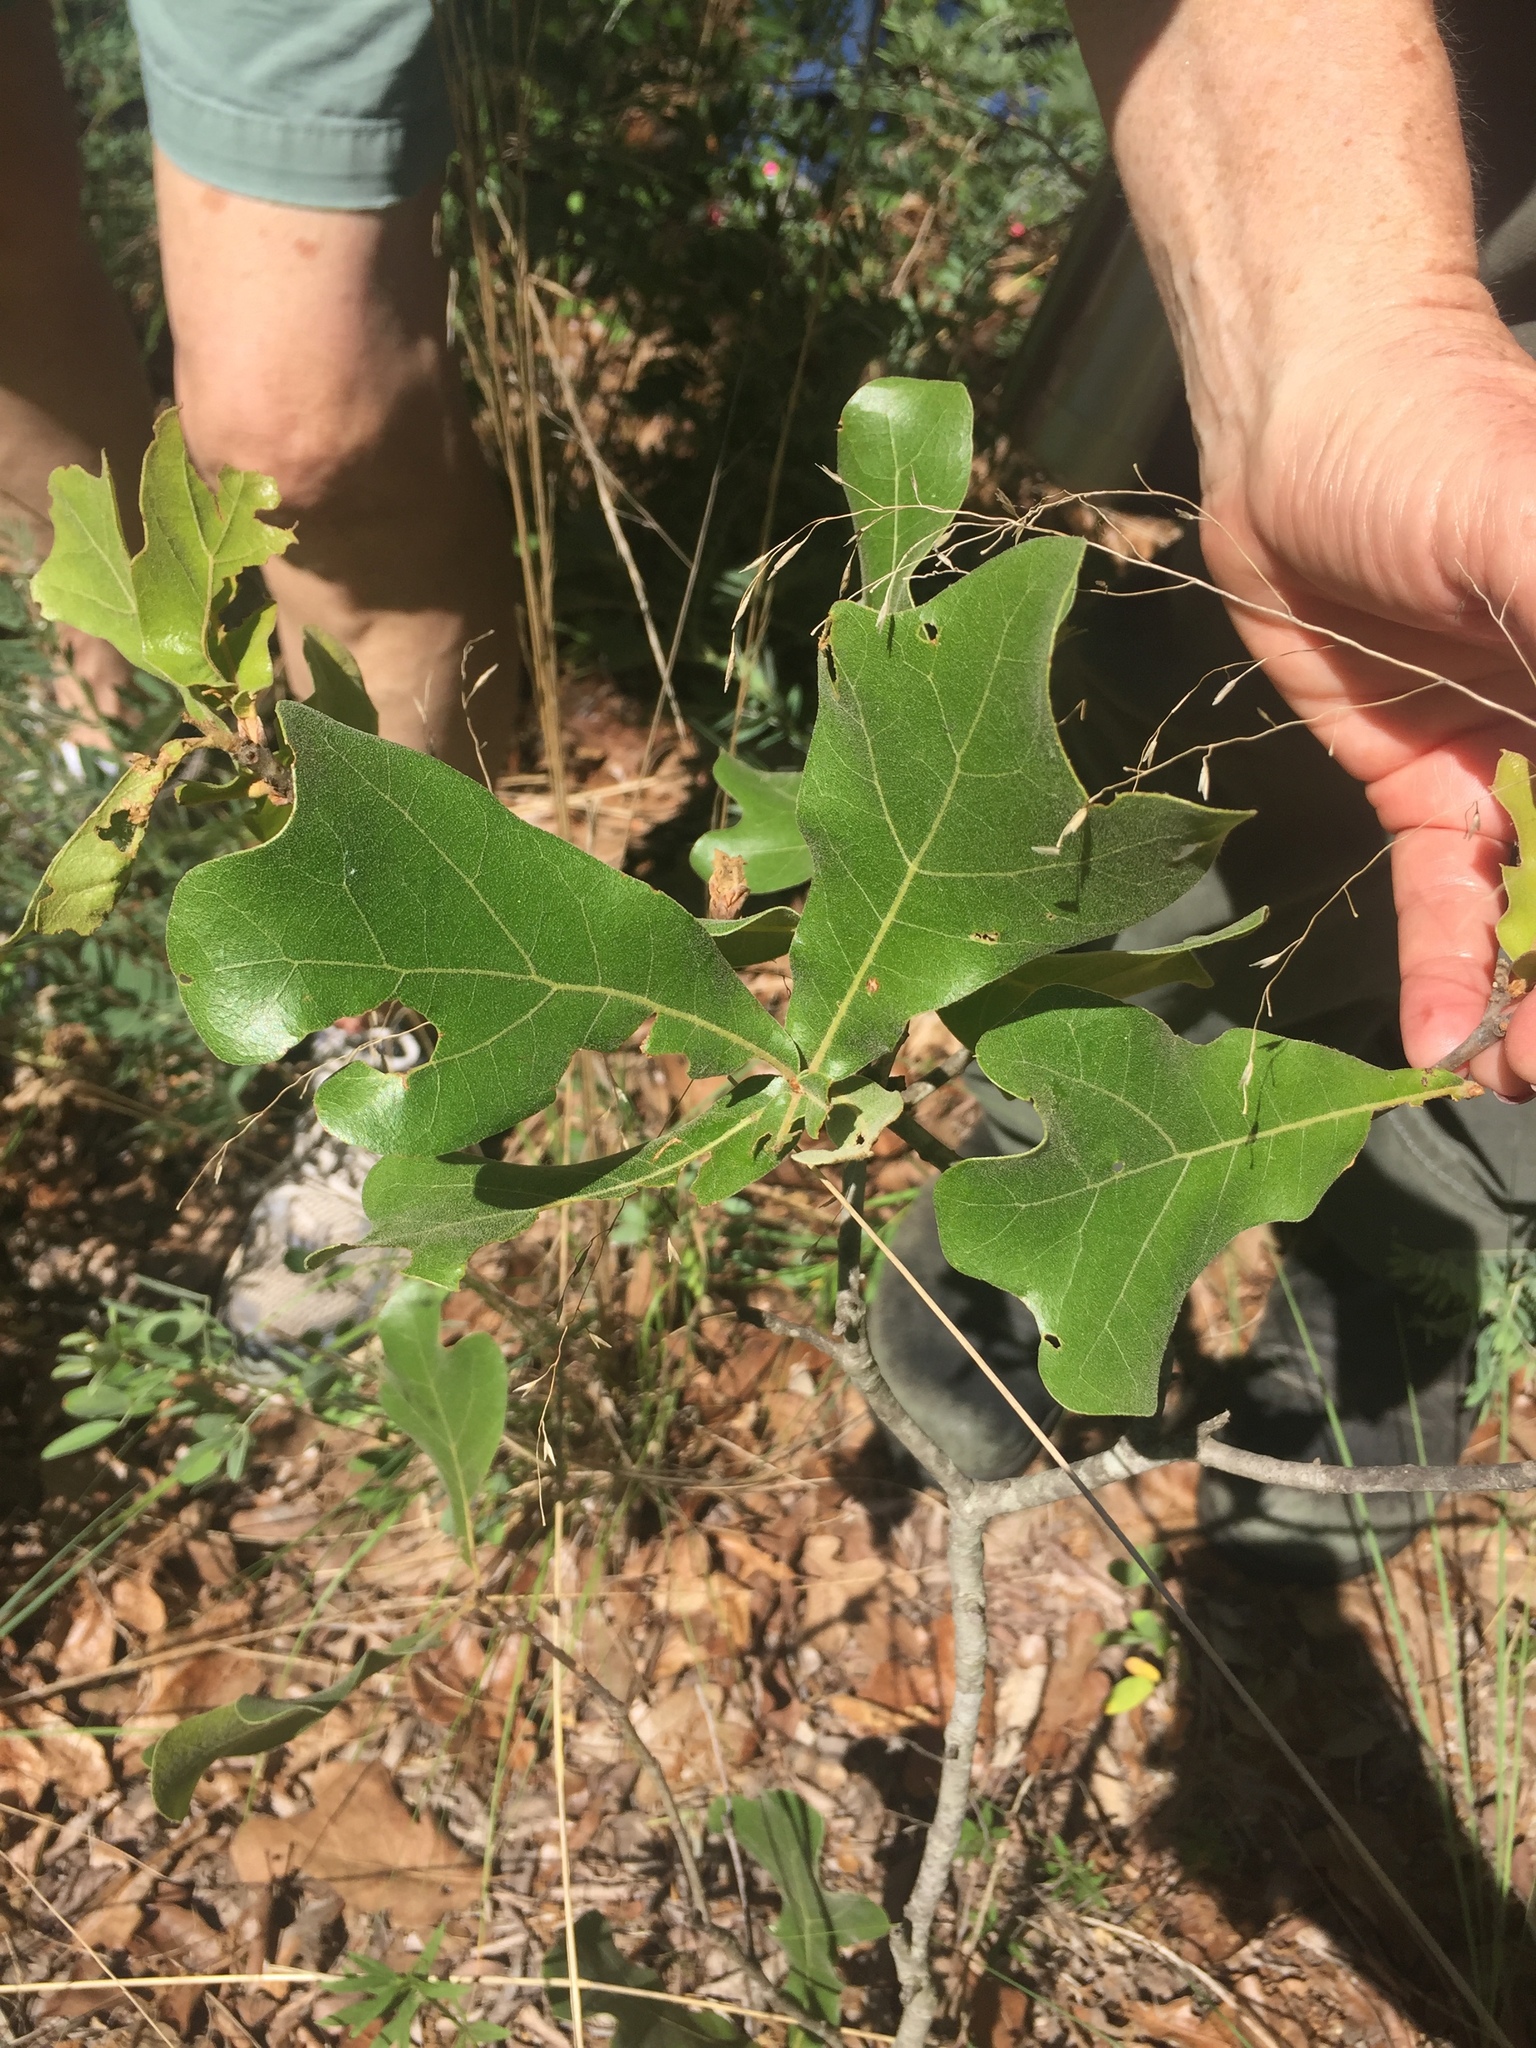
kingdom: Plantae
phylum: Tracheophyta
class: Magnoliopsida
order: Fagales
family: Fagaceae
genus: Quercus
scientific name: Quercus marilandica
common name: Blackjack oak
